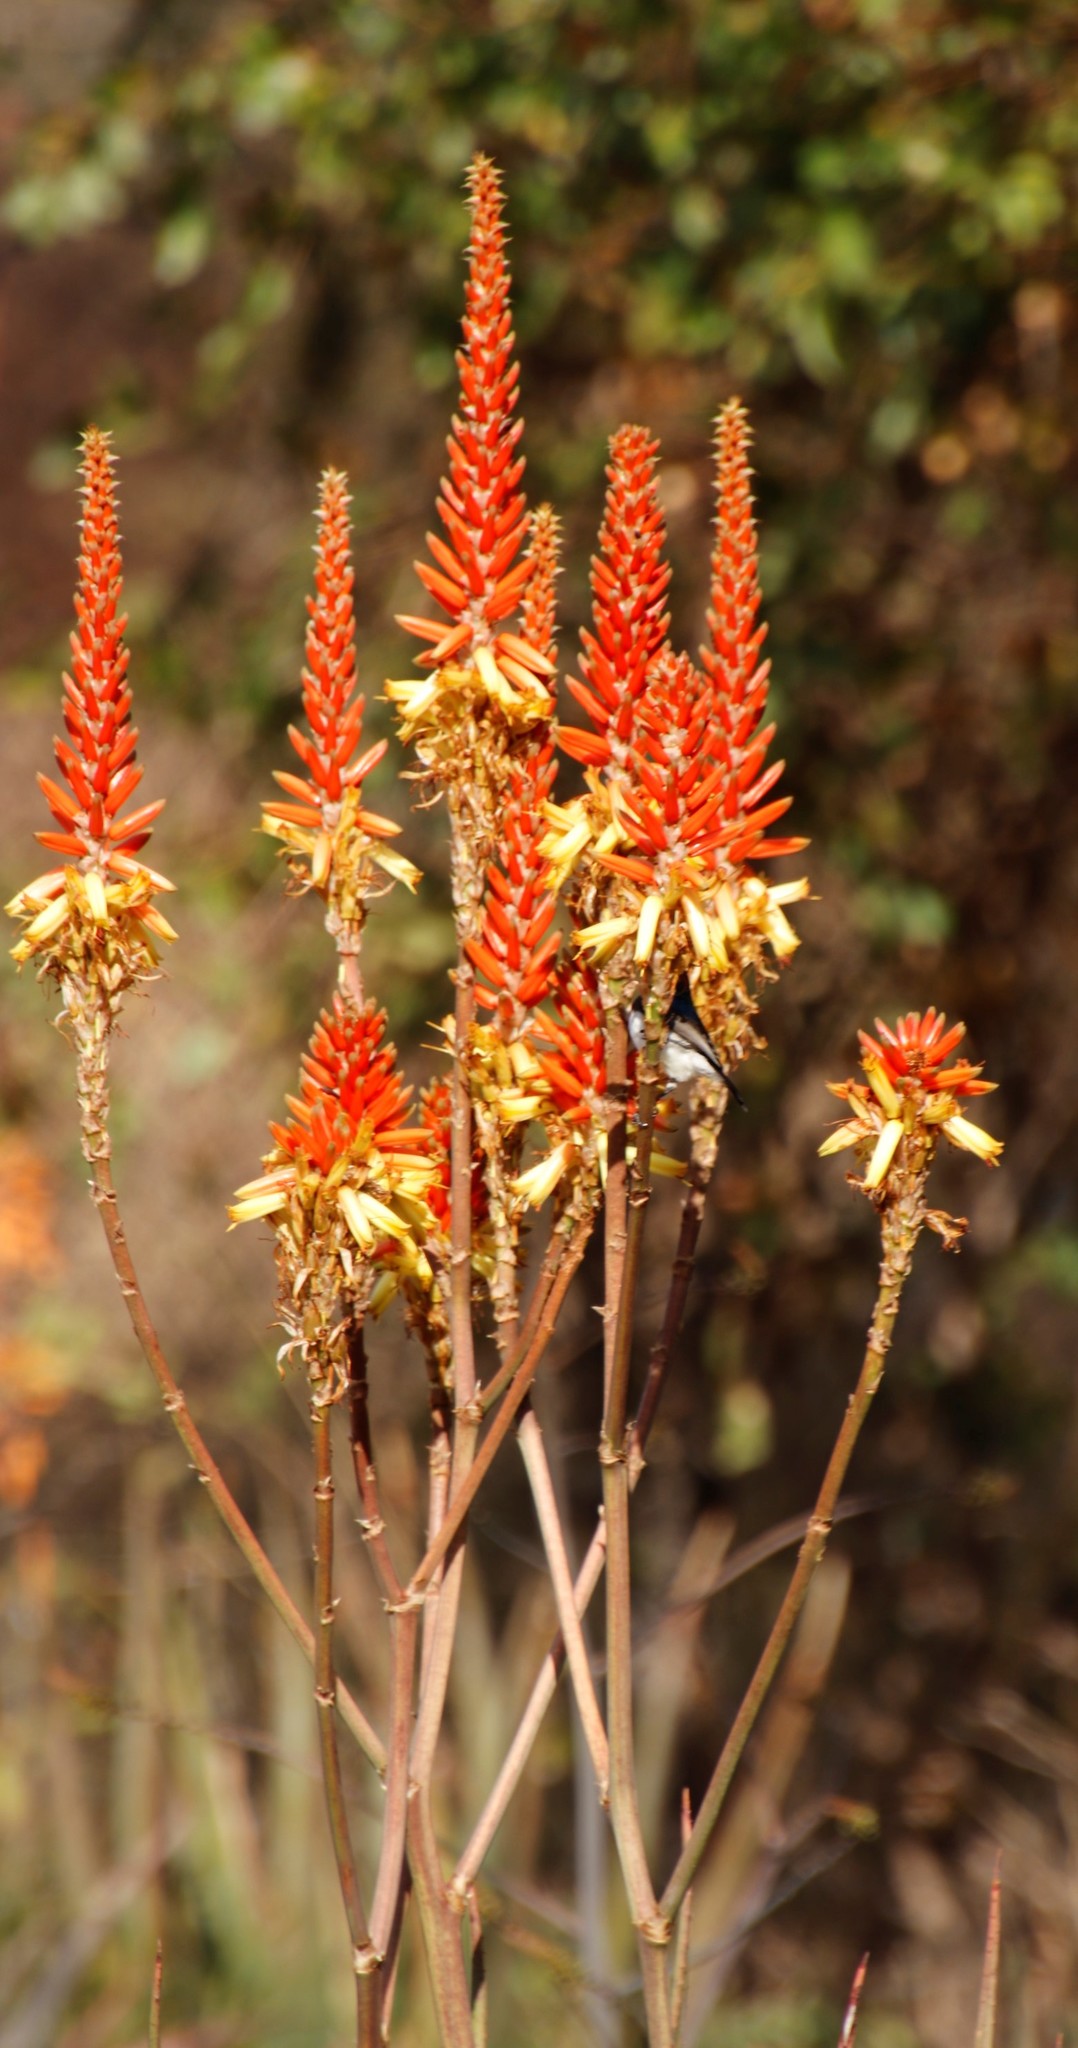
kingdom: Animalia
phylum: Chordata
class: Aves
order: Passeriformes
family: Nectariniidae
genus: Cinnyris
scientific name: Cinnyris talatala
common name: White-bellied sunbird
